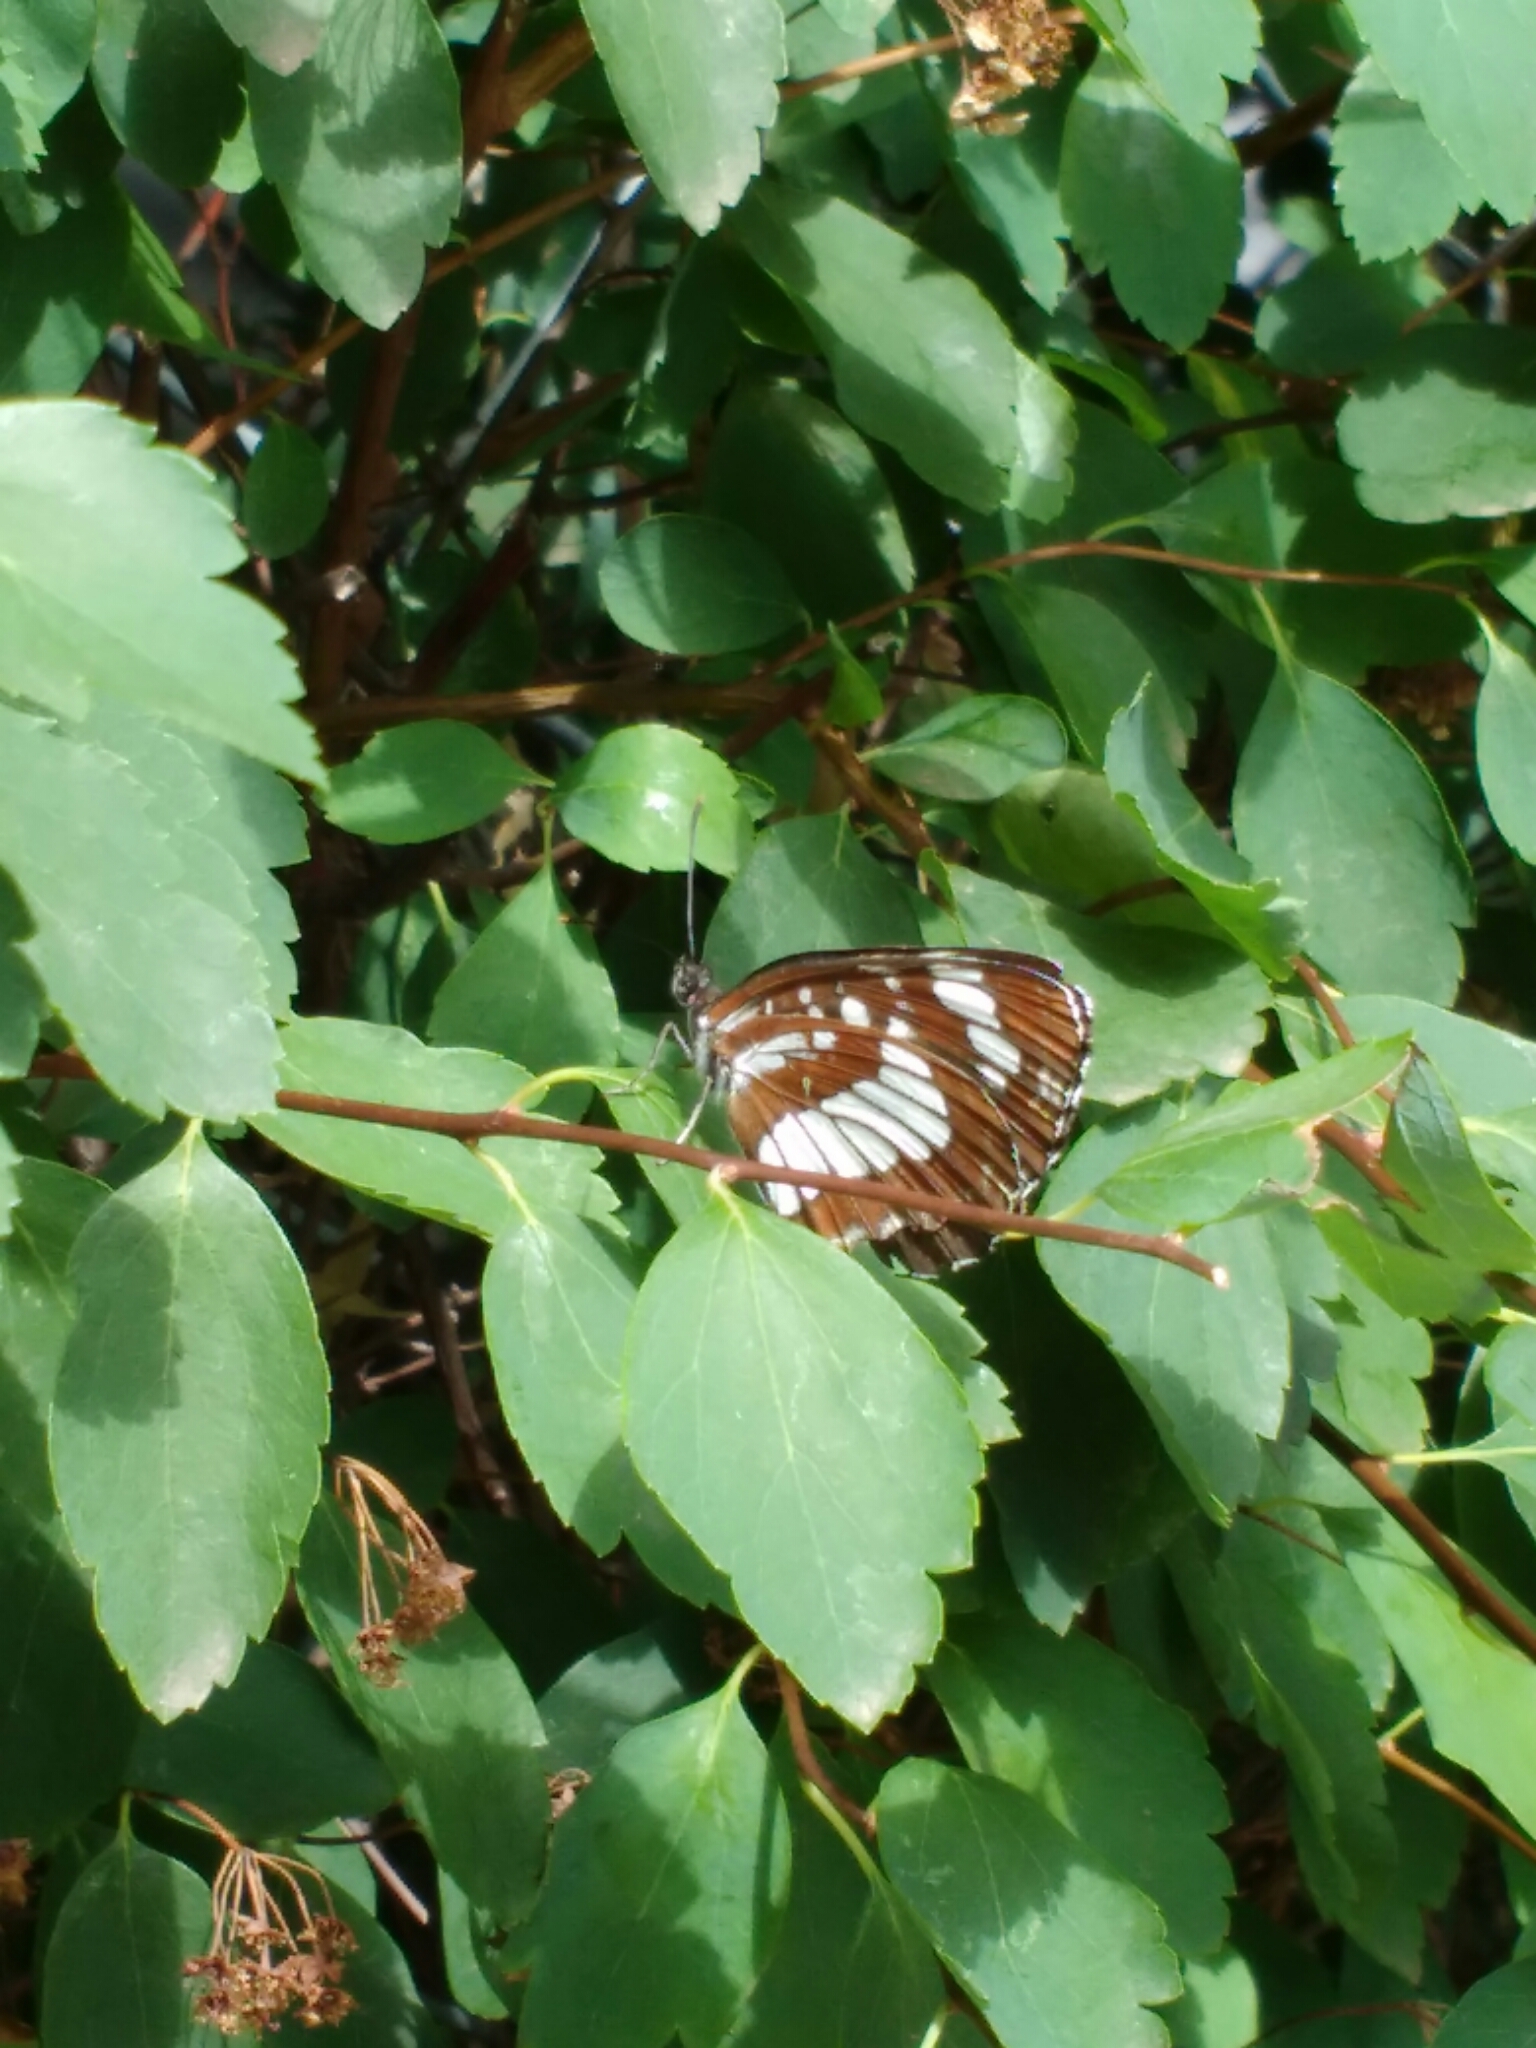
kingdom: Animalia
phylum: Arthropoda
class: Insecta
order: Lepidoptera
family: Nymphalidae
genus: Neptis
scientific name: Neptis rivularis
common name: Hungarian glider
